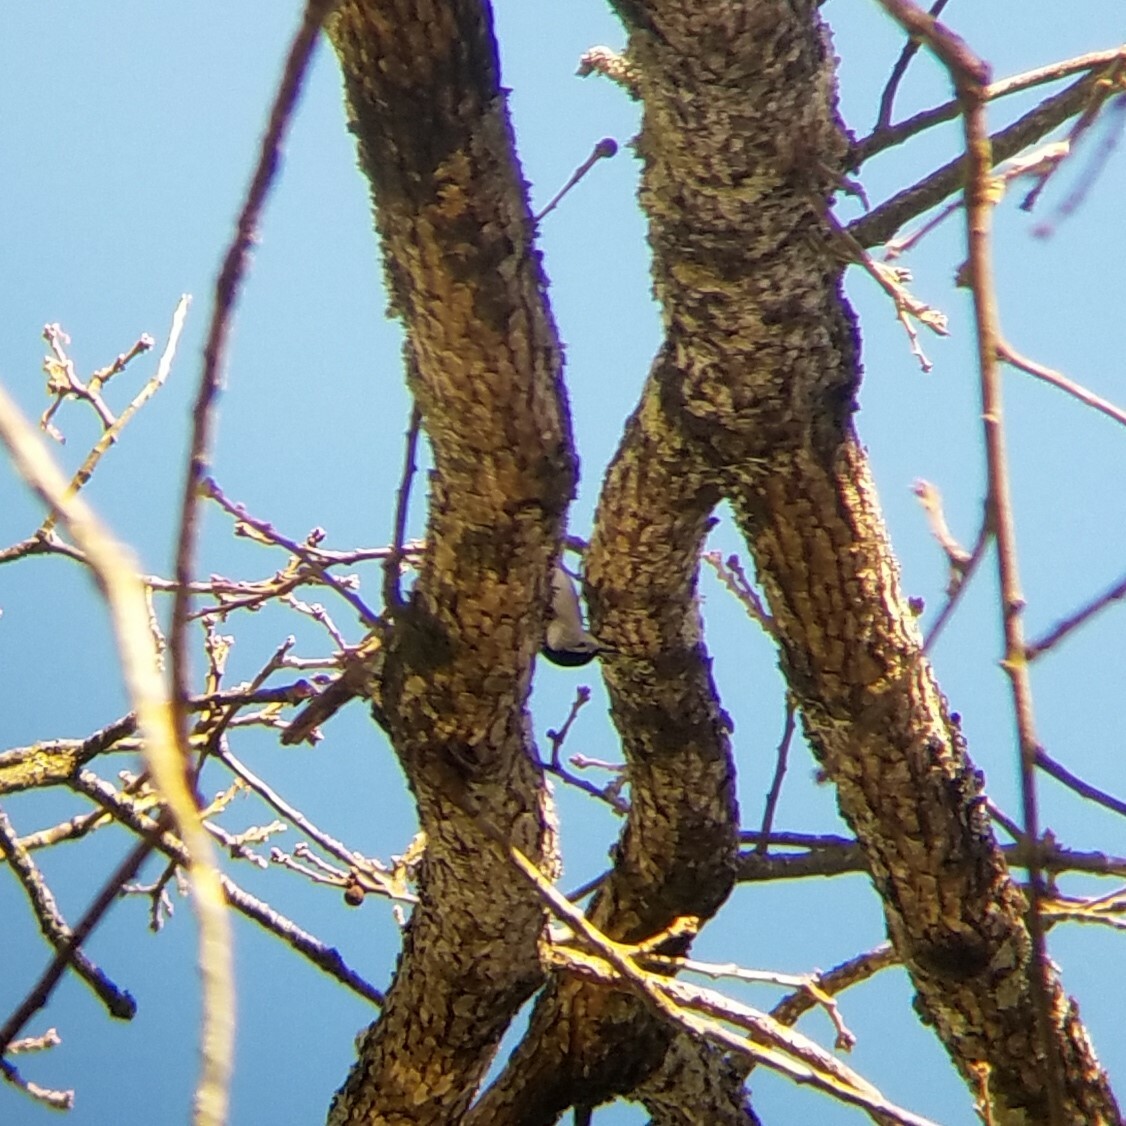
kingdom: Animalia
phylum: Chordata
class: Aves
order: Passeriformes
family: Sittidae
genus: Sitta
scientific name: Sitta carolinensis
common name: White-breasted nuthatch
